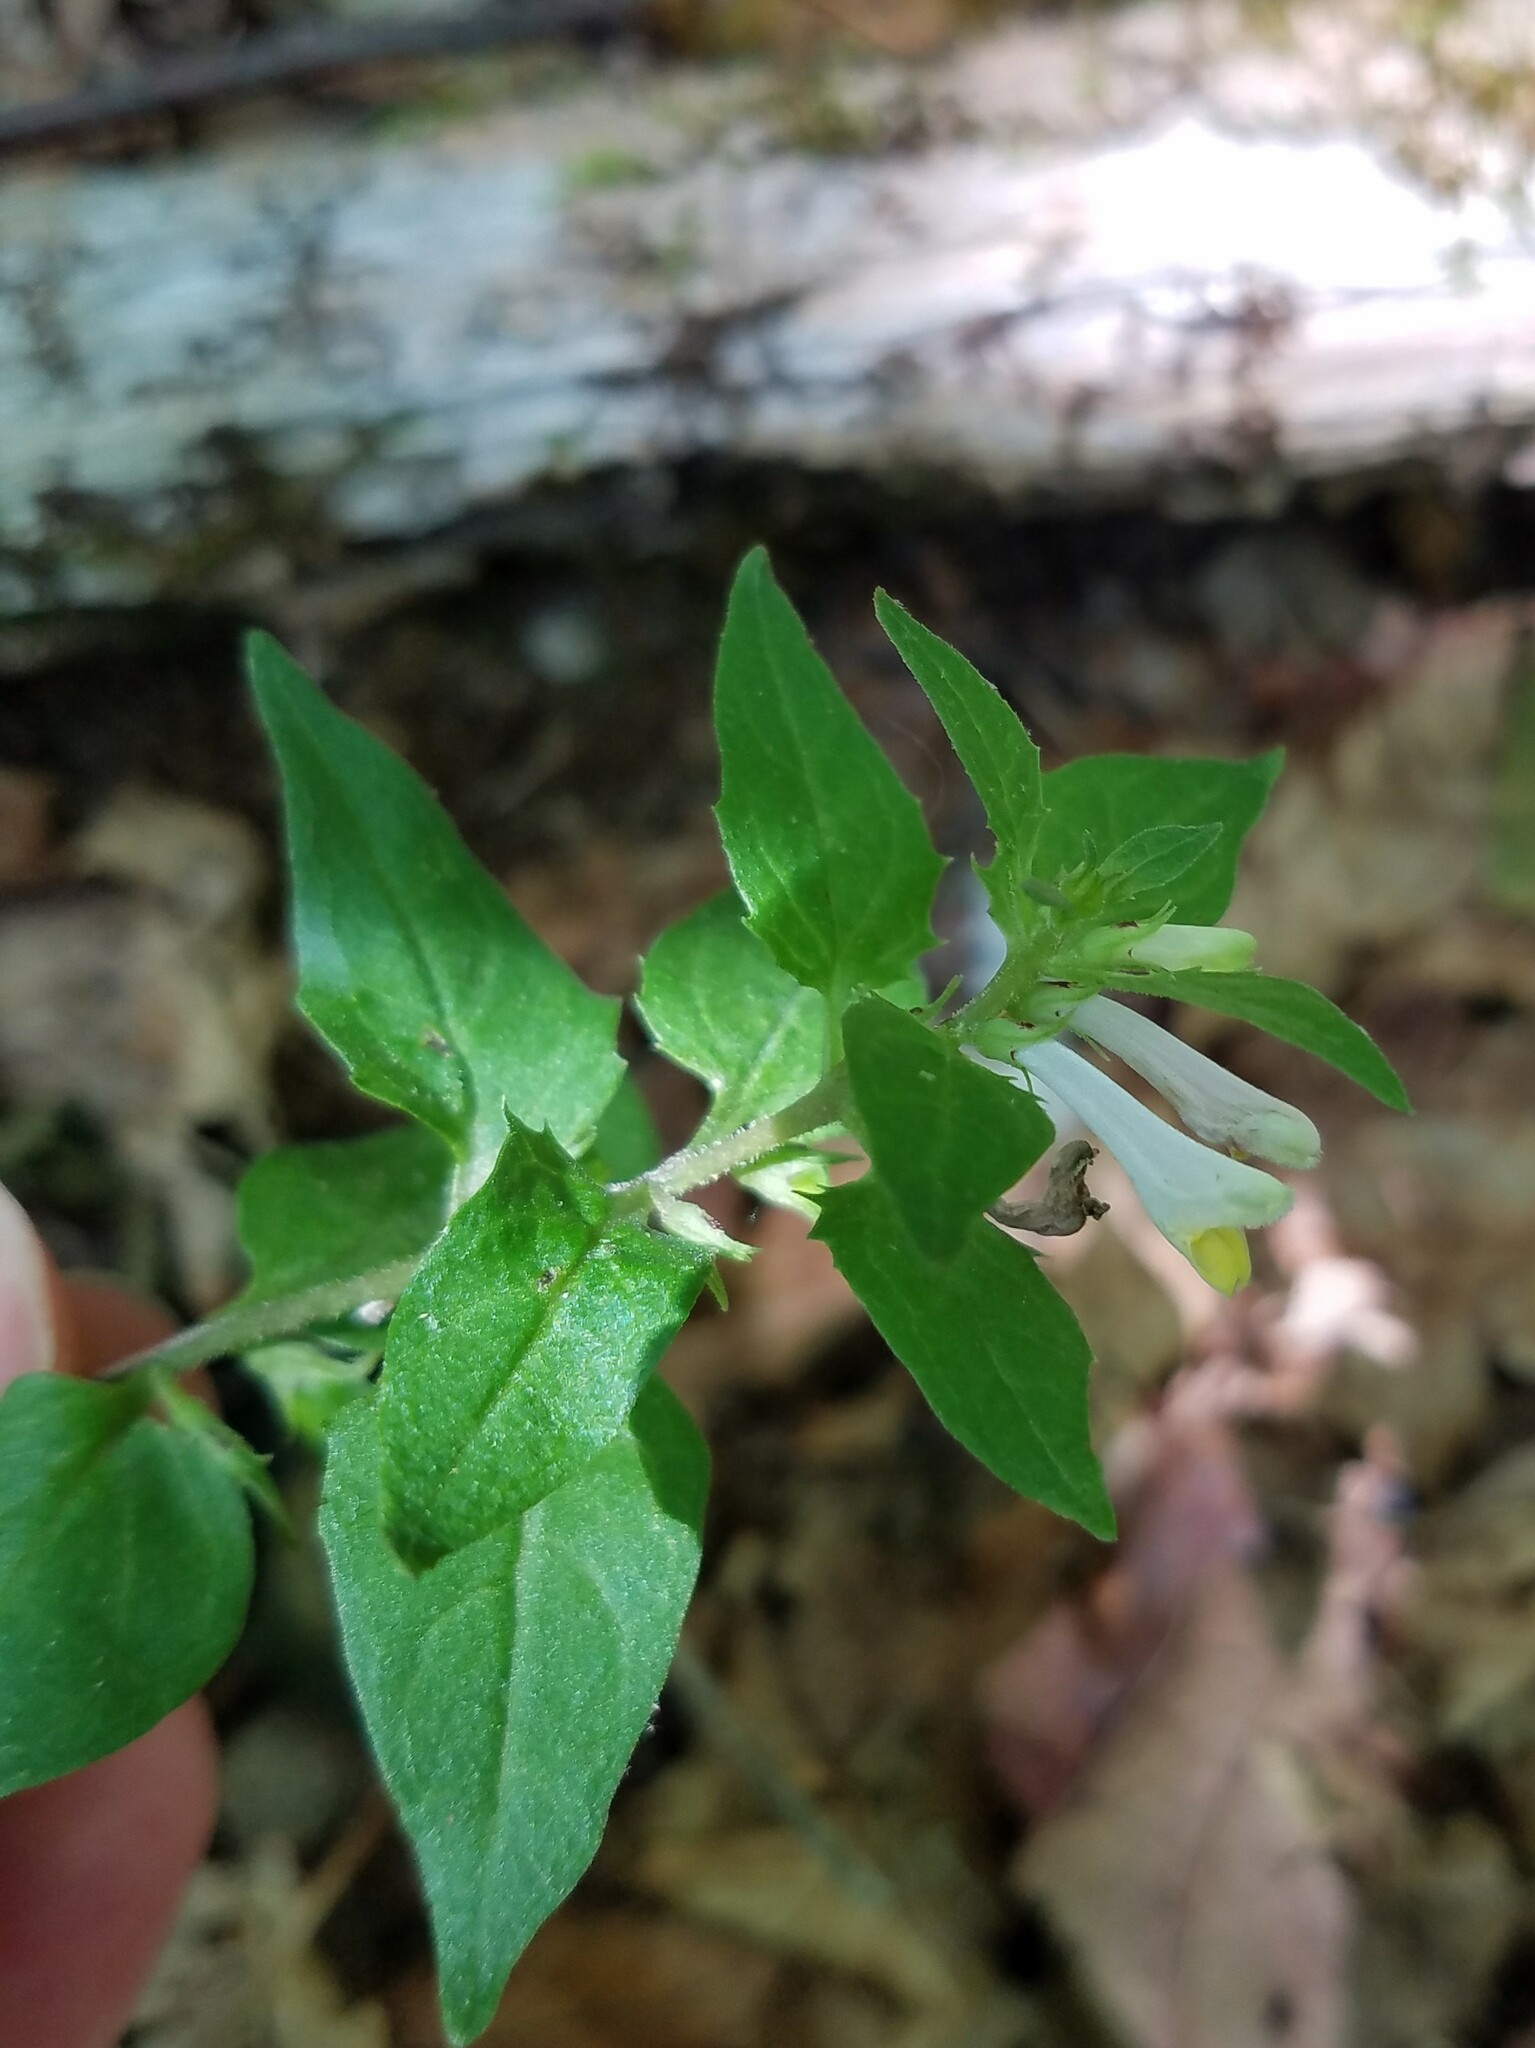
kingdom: Plantae
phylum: Tracheophyta
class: Magnoliopsida
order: Lamiales
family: Orobanchaceae
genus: Melampyrum
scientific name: Melampyrum lineare
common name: American cow-wheat
